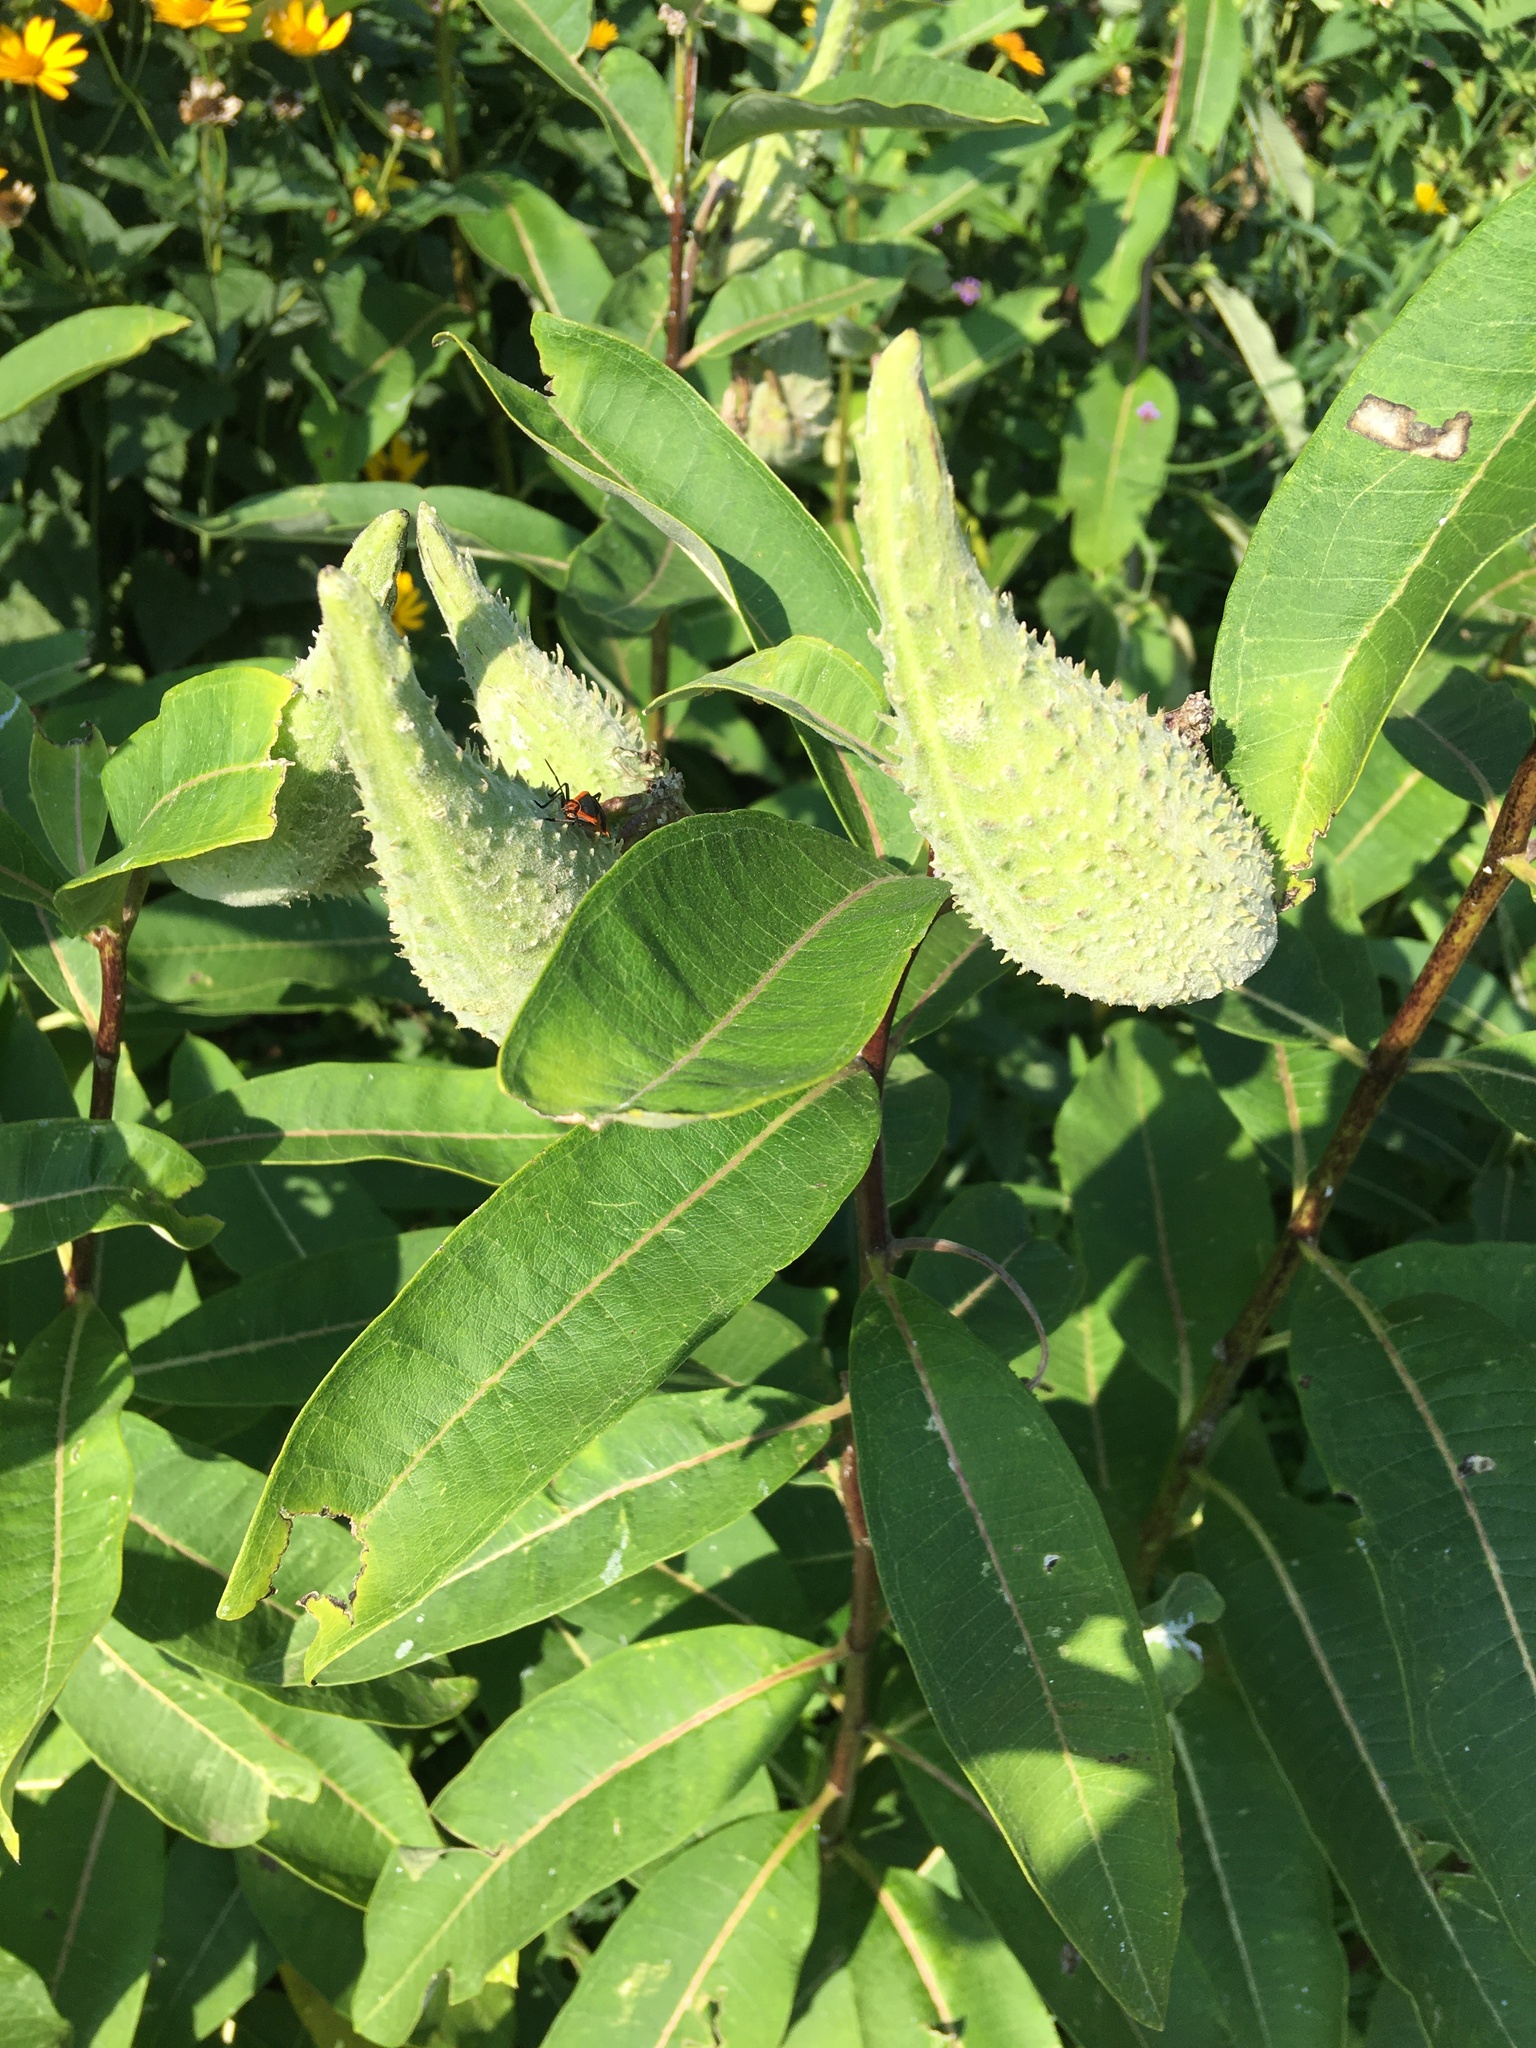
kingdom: Plantae
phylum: Tracheophyta
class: Magnoliopsida
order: Gentianales
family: Apocynaceae
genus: Asclepias
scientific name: Asclepias syriaca
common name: Common milkweed
